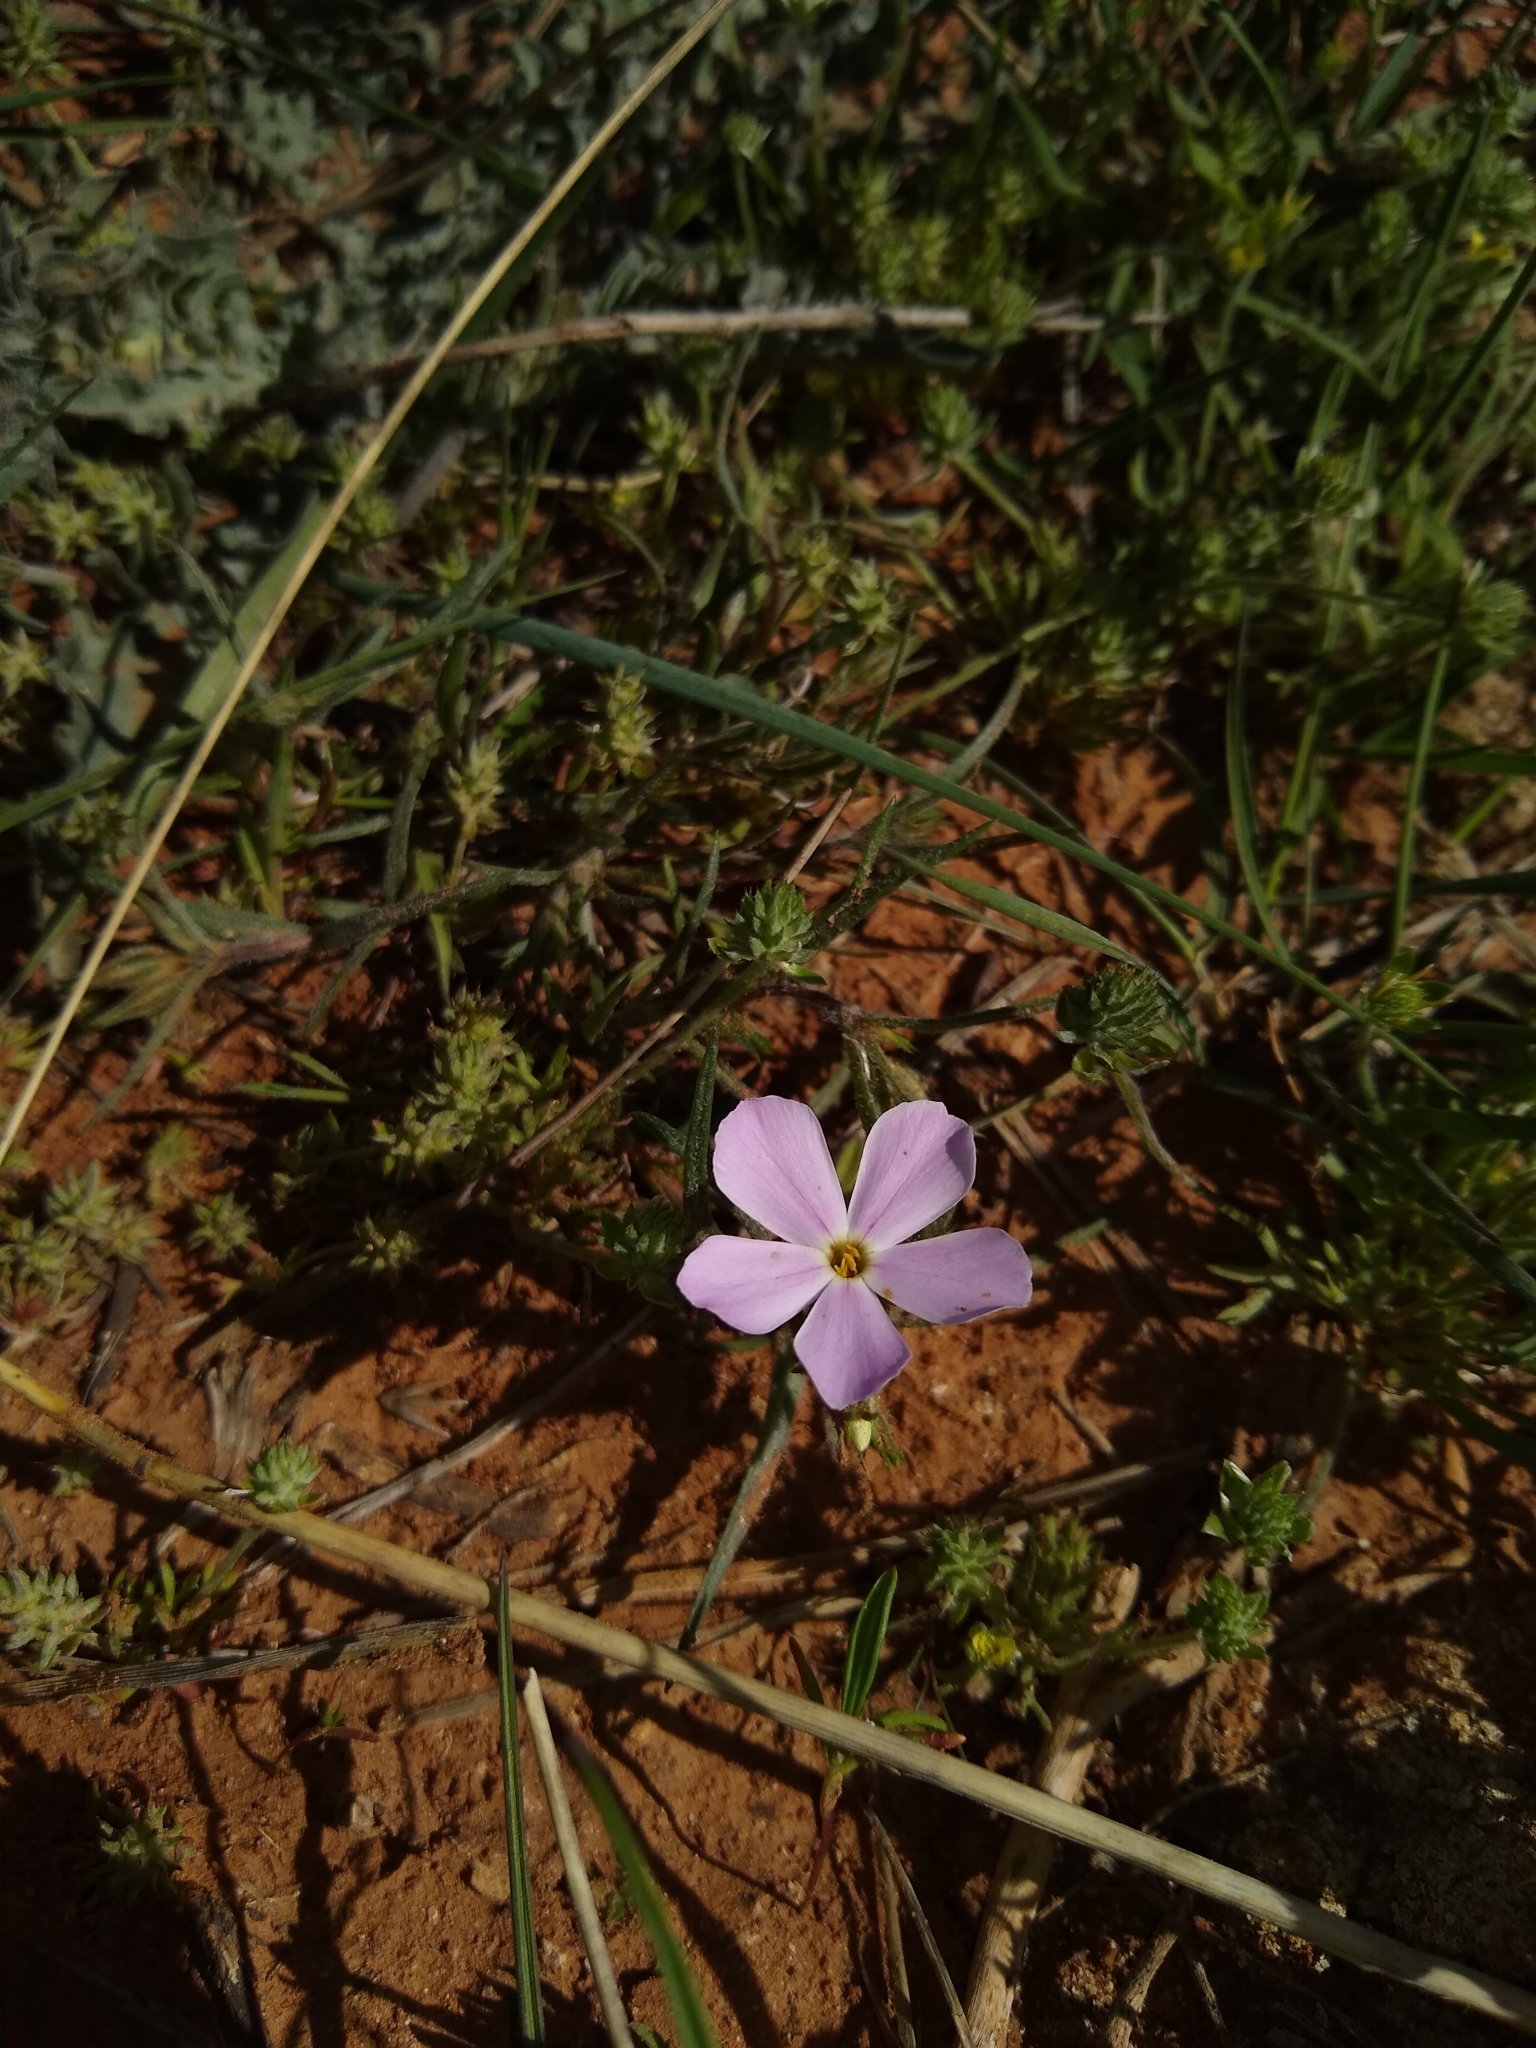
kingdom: Plantae
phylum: Tracheophyta
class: Magnoliopsida
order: Ericales
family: Polemoniaceae
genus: Phlox
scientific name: Phlox longifolia
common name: Longleaf phlox
